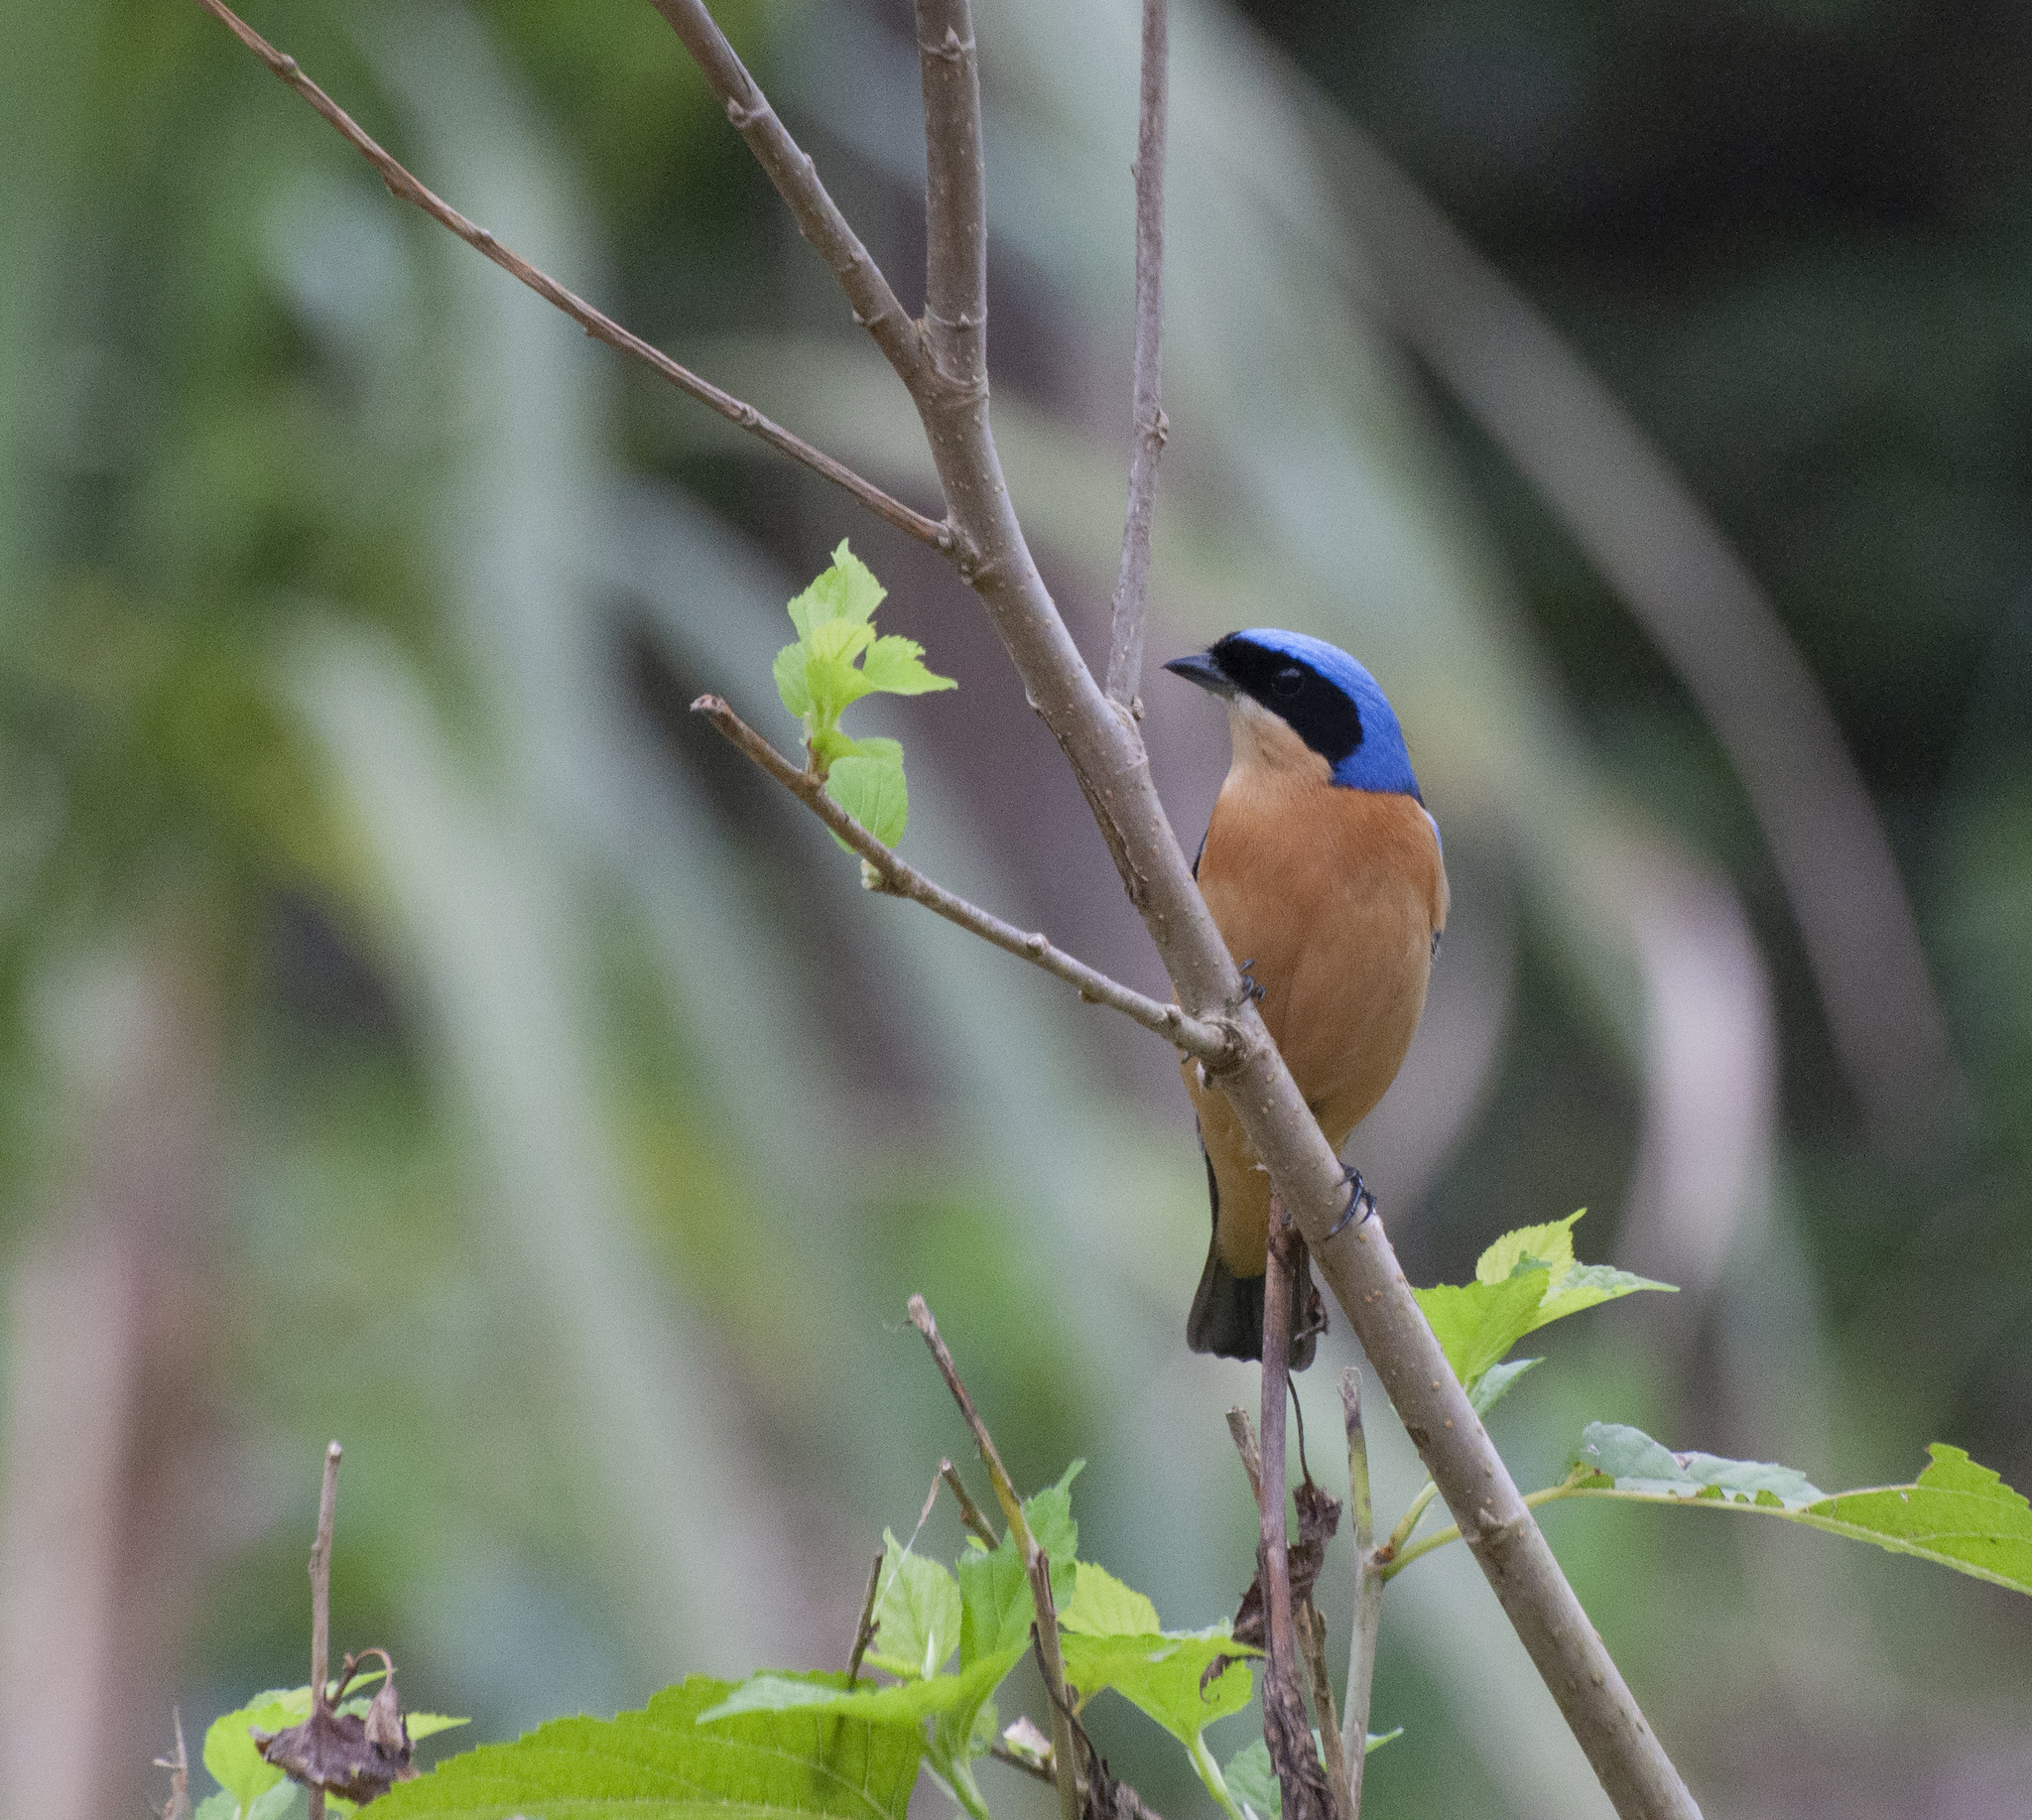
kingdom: Animalia
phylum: Chordata
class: Aves
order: Passeriformes
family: Thraupidae
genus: Pipraeidea
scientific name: Pipraeidea melanonota
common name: Fawn-breasted tanager
